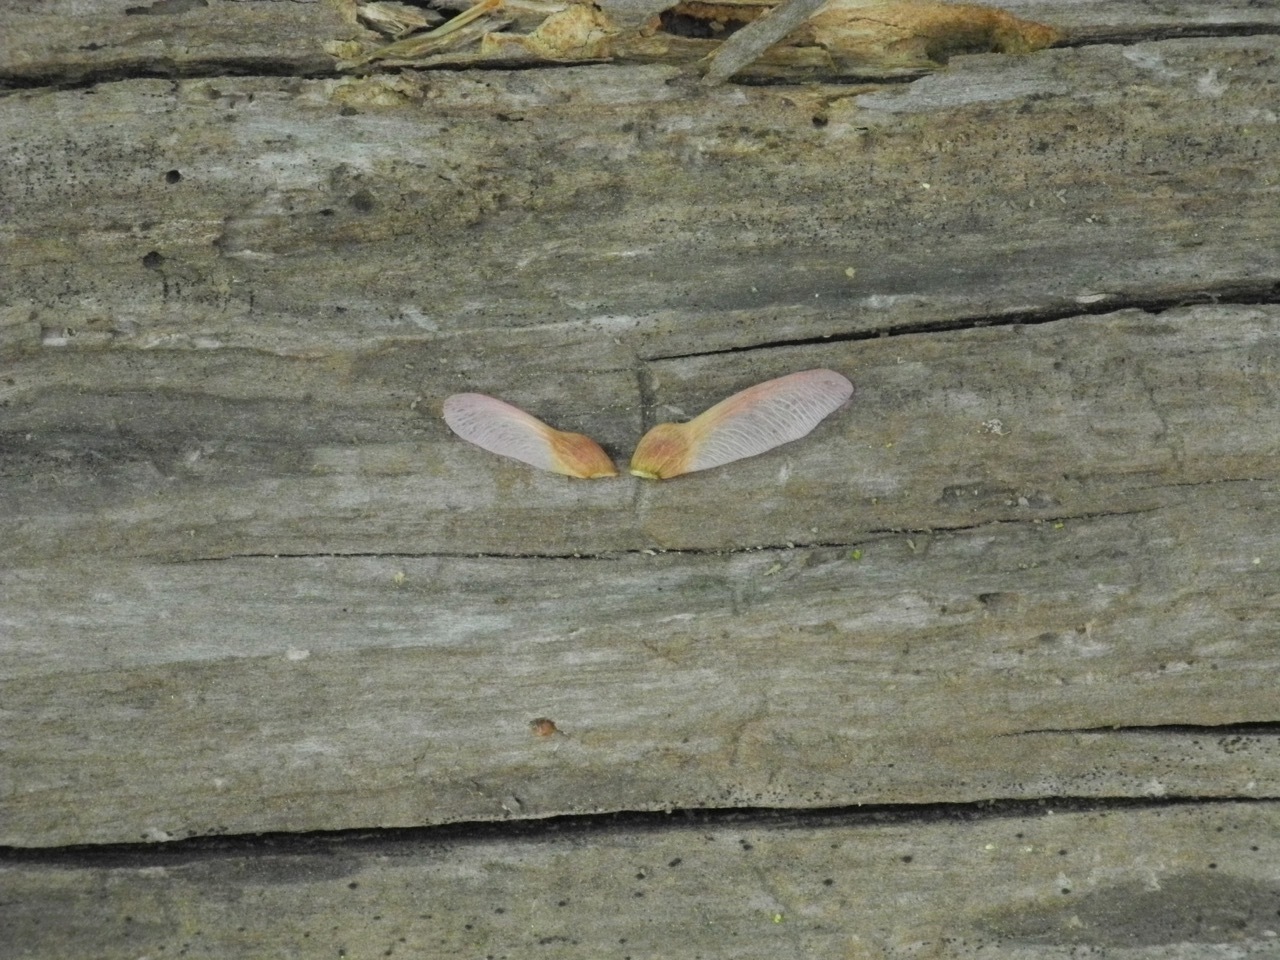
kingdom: Plantae
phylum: Tracheophyta
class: Magnoliopsida
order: Sapindales
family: Sapindaceae
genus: Acer
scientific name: Acer freemanii
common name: Freeman maple
